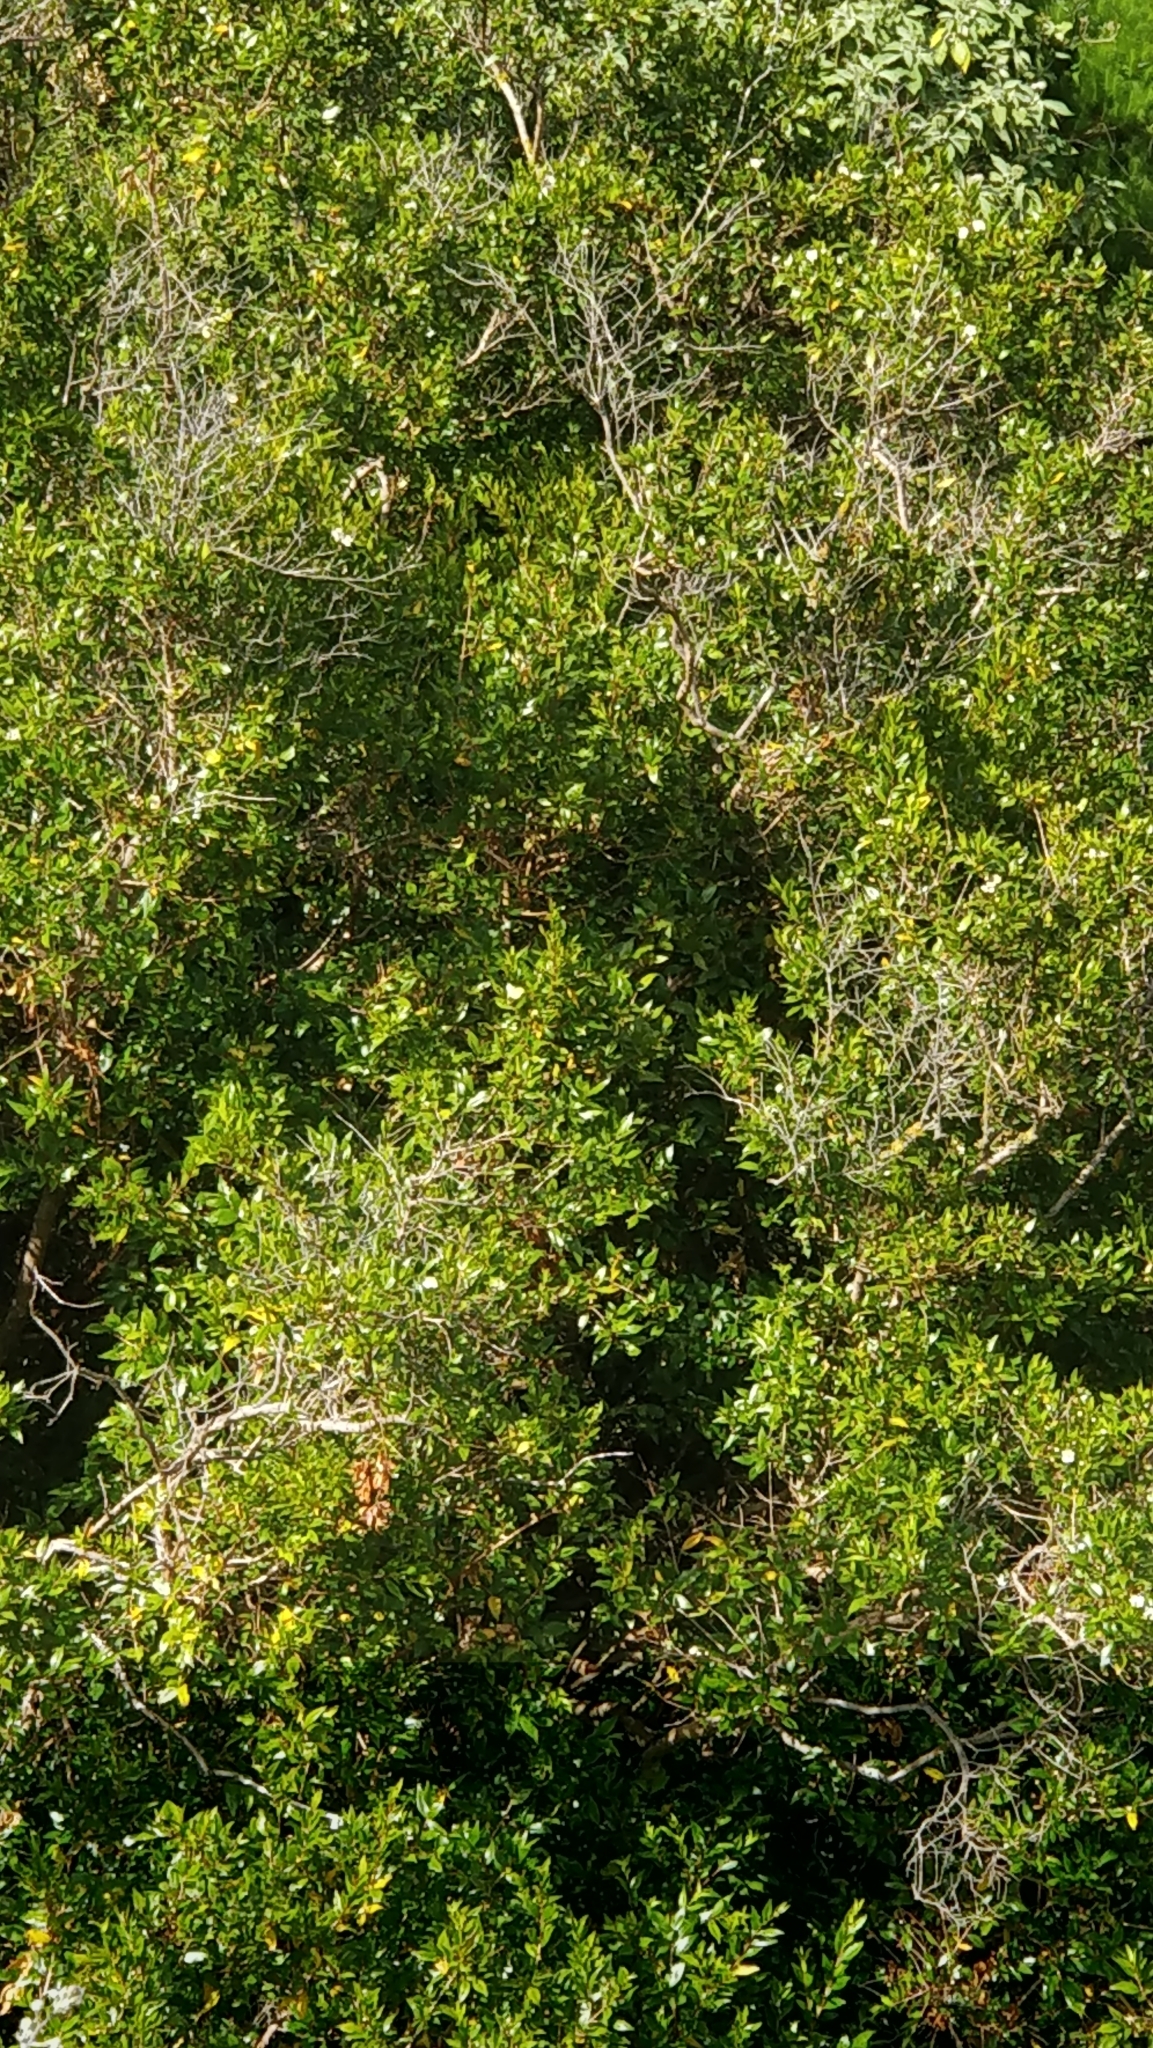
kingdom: Plantae
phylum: Tracheophyta
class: Magnoliopsida
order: Myrtales
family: Myrtaceae
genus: Myrtus
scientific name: Myrtus communis
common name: Myrtle
